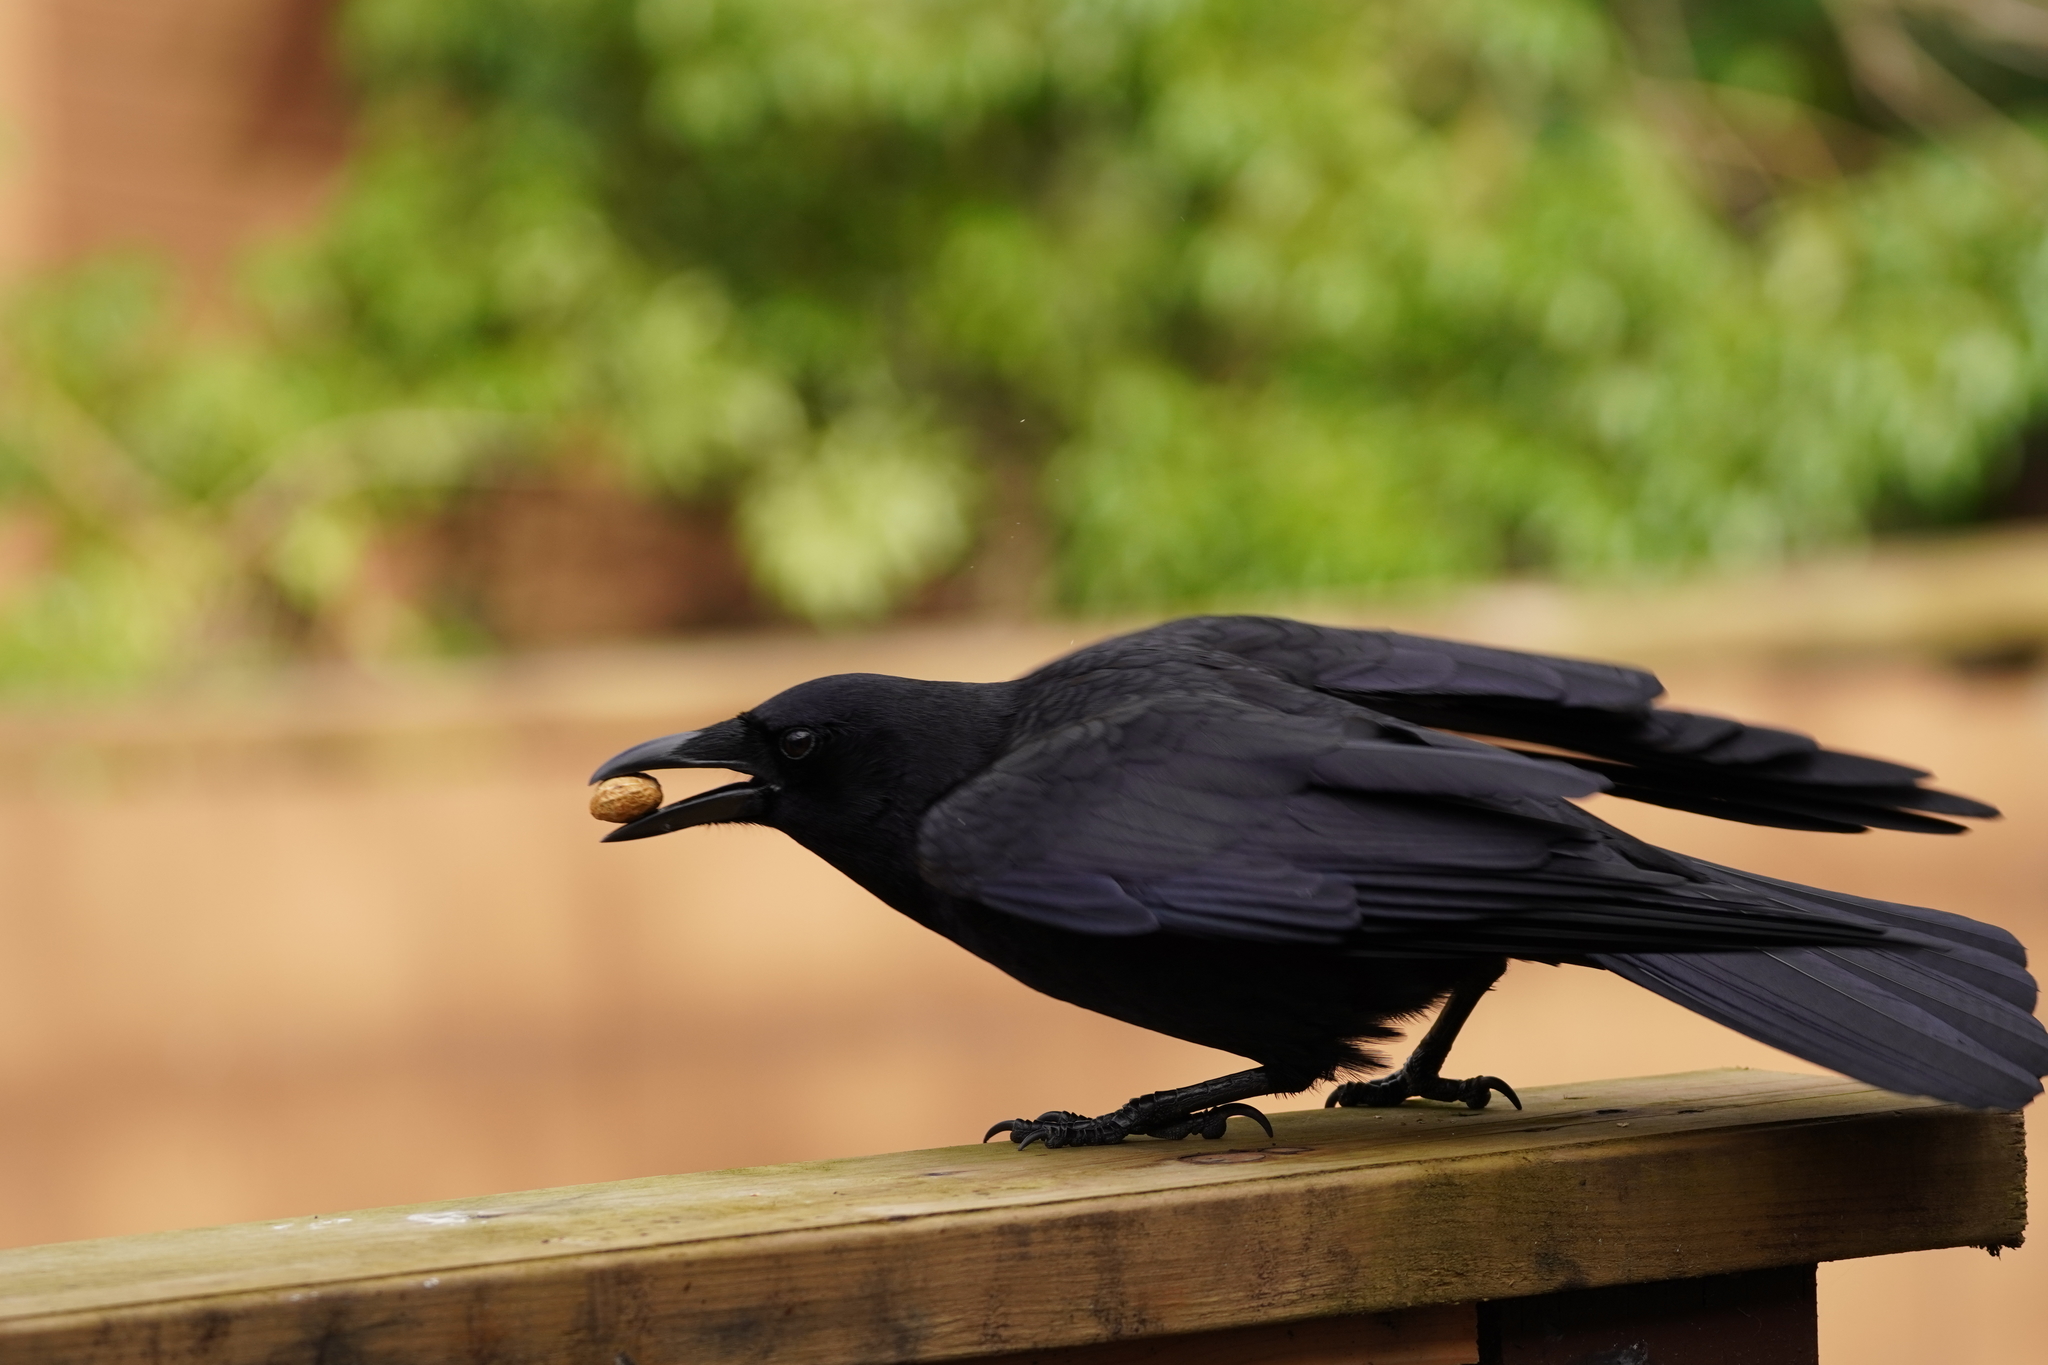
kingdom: Animalia
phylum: Chordata
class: Aves
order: Passeriformes
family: Corvidae
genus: Corvus
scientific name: Corvus brachyrhynchos
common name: American crow
